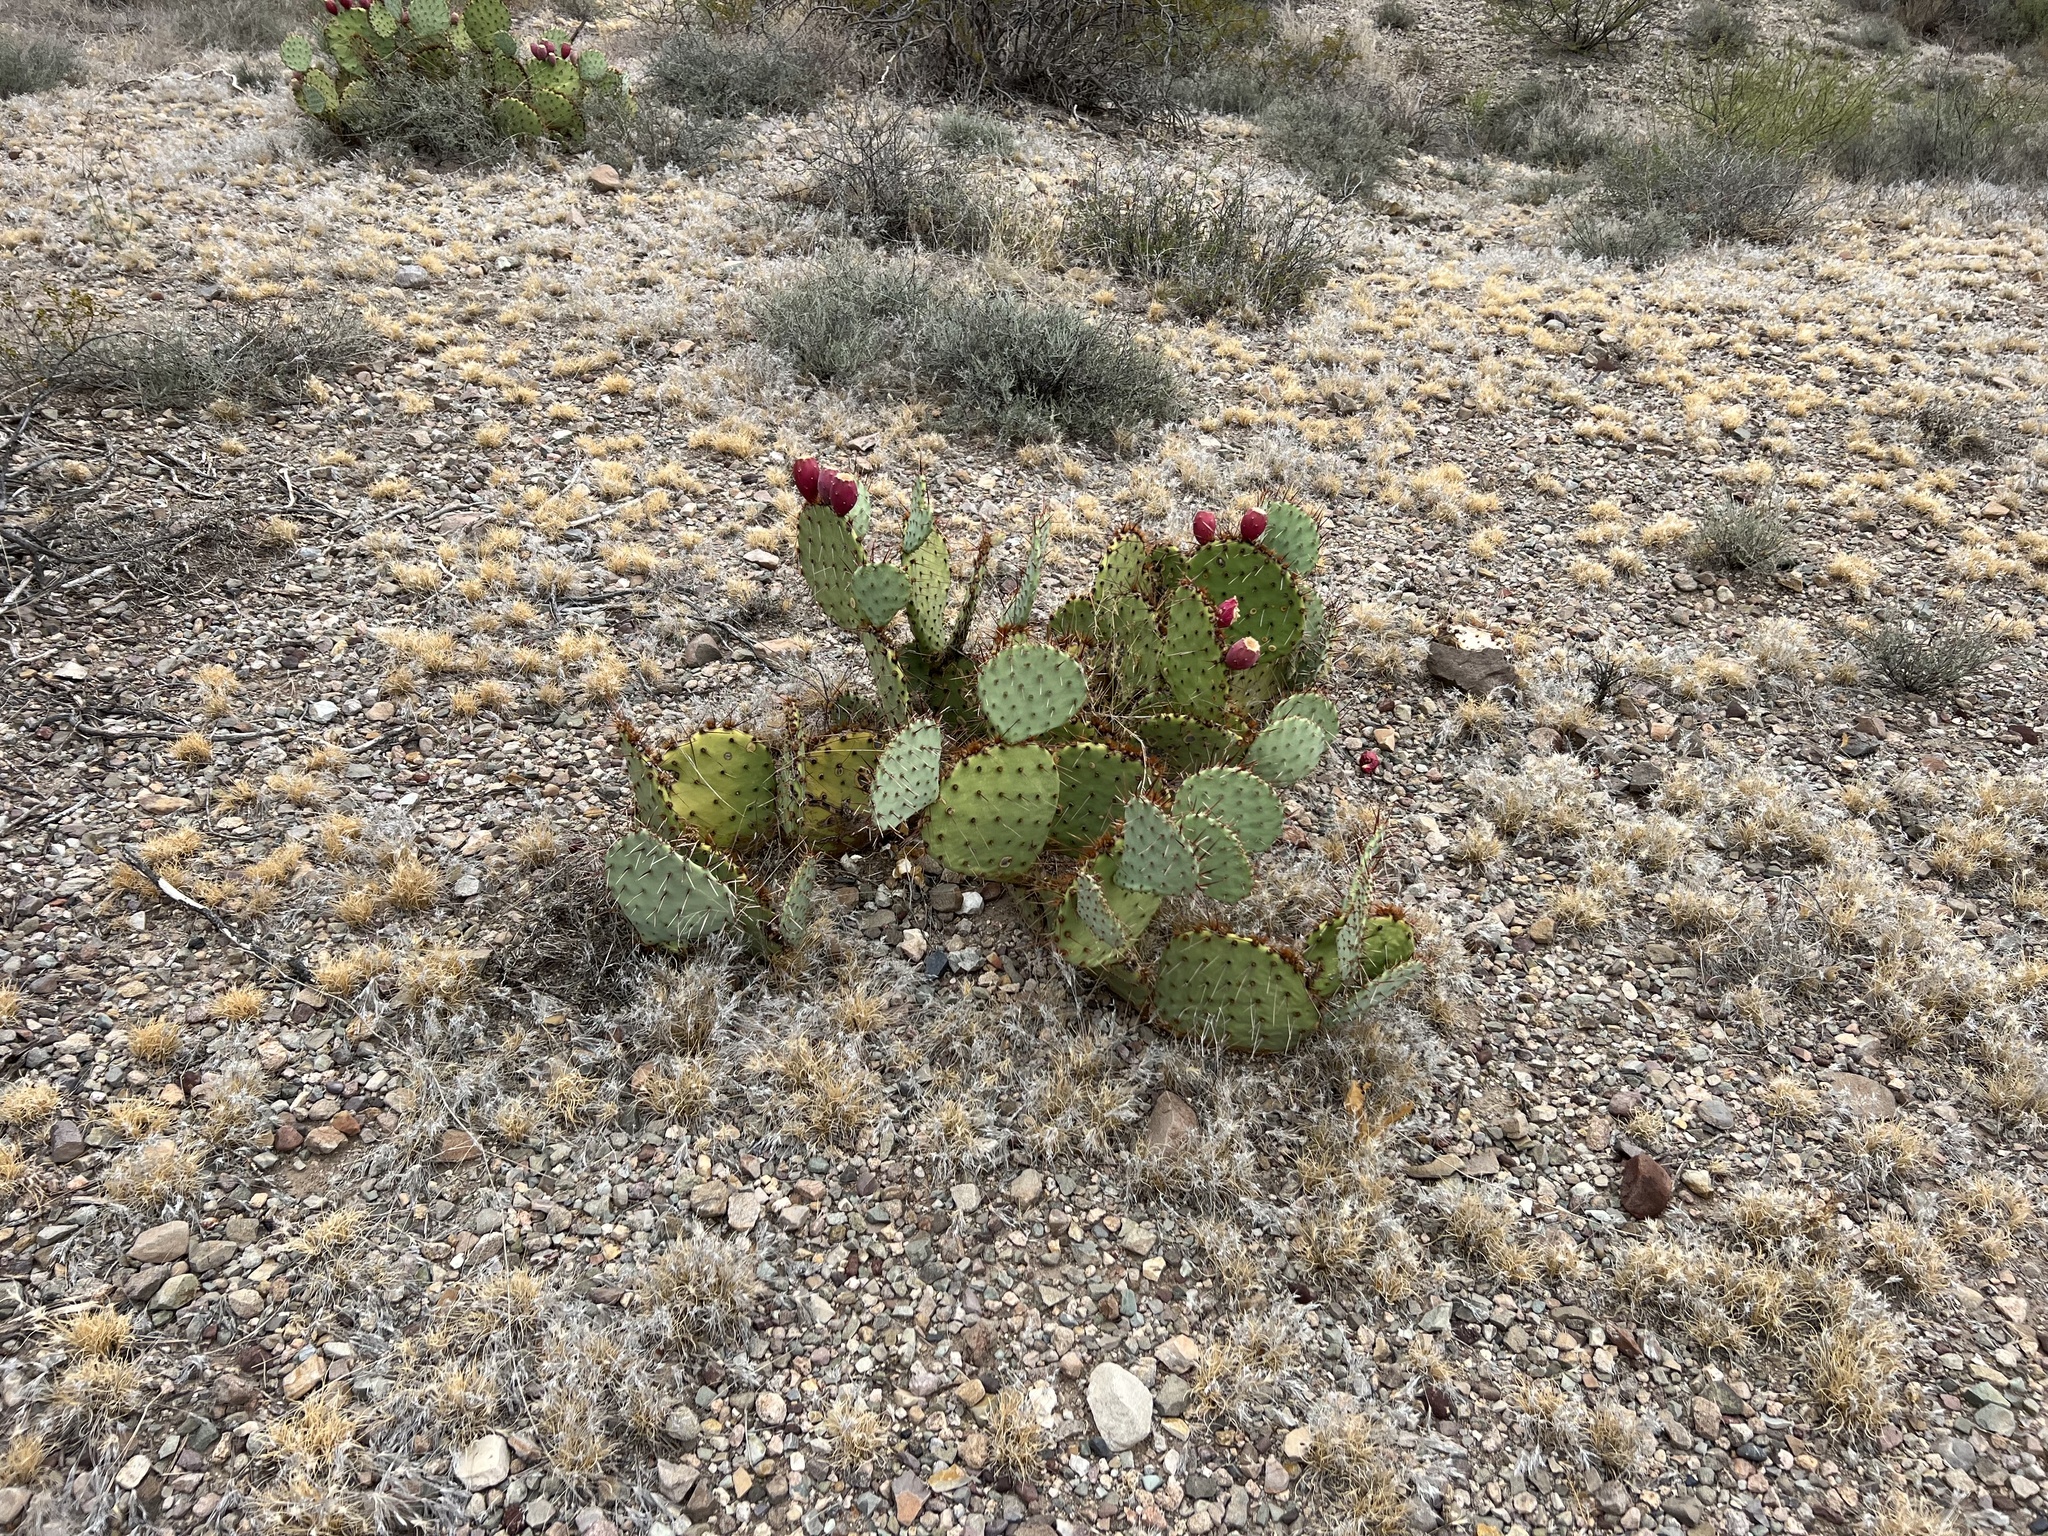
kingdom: Plantae
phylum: Tracheophyta
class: Magnoliopsida
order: Caryophyllales
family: Cactaceae
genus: Opuntia
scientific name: Opuntia phaeacantha
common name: New mexico prickly-pear
